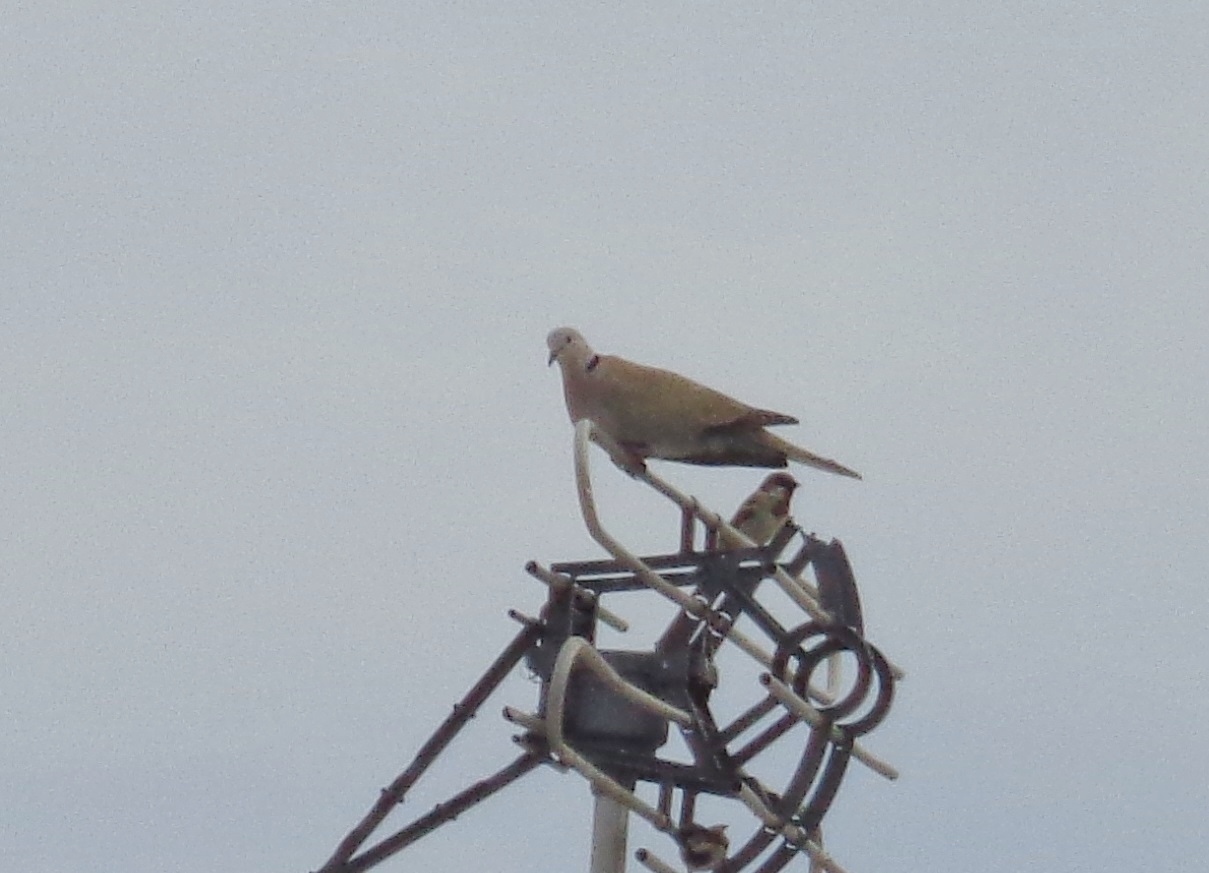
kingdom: Animalia
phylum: Chordata
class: Aves
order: Columbiformes
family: Columbidae
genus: Streptopelia
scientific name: Streptopelia decaocto
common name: Eurasian collared dove
